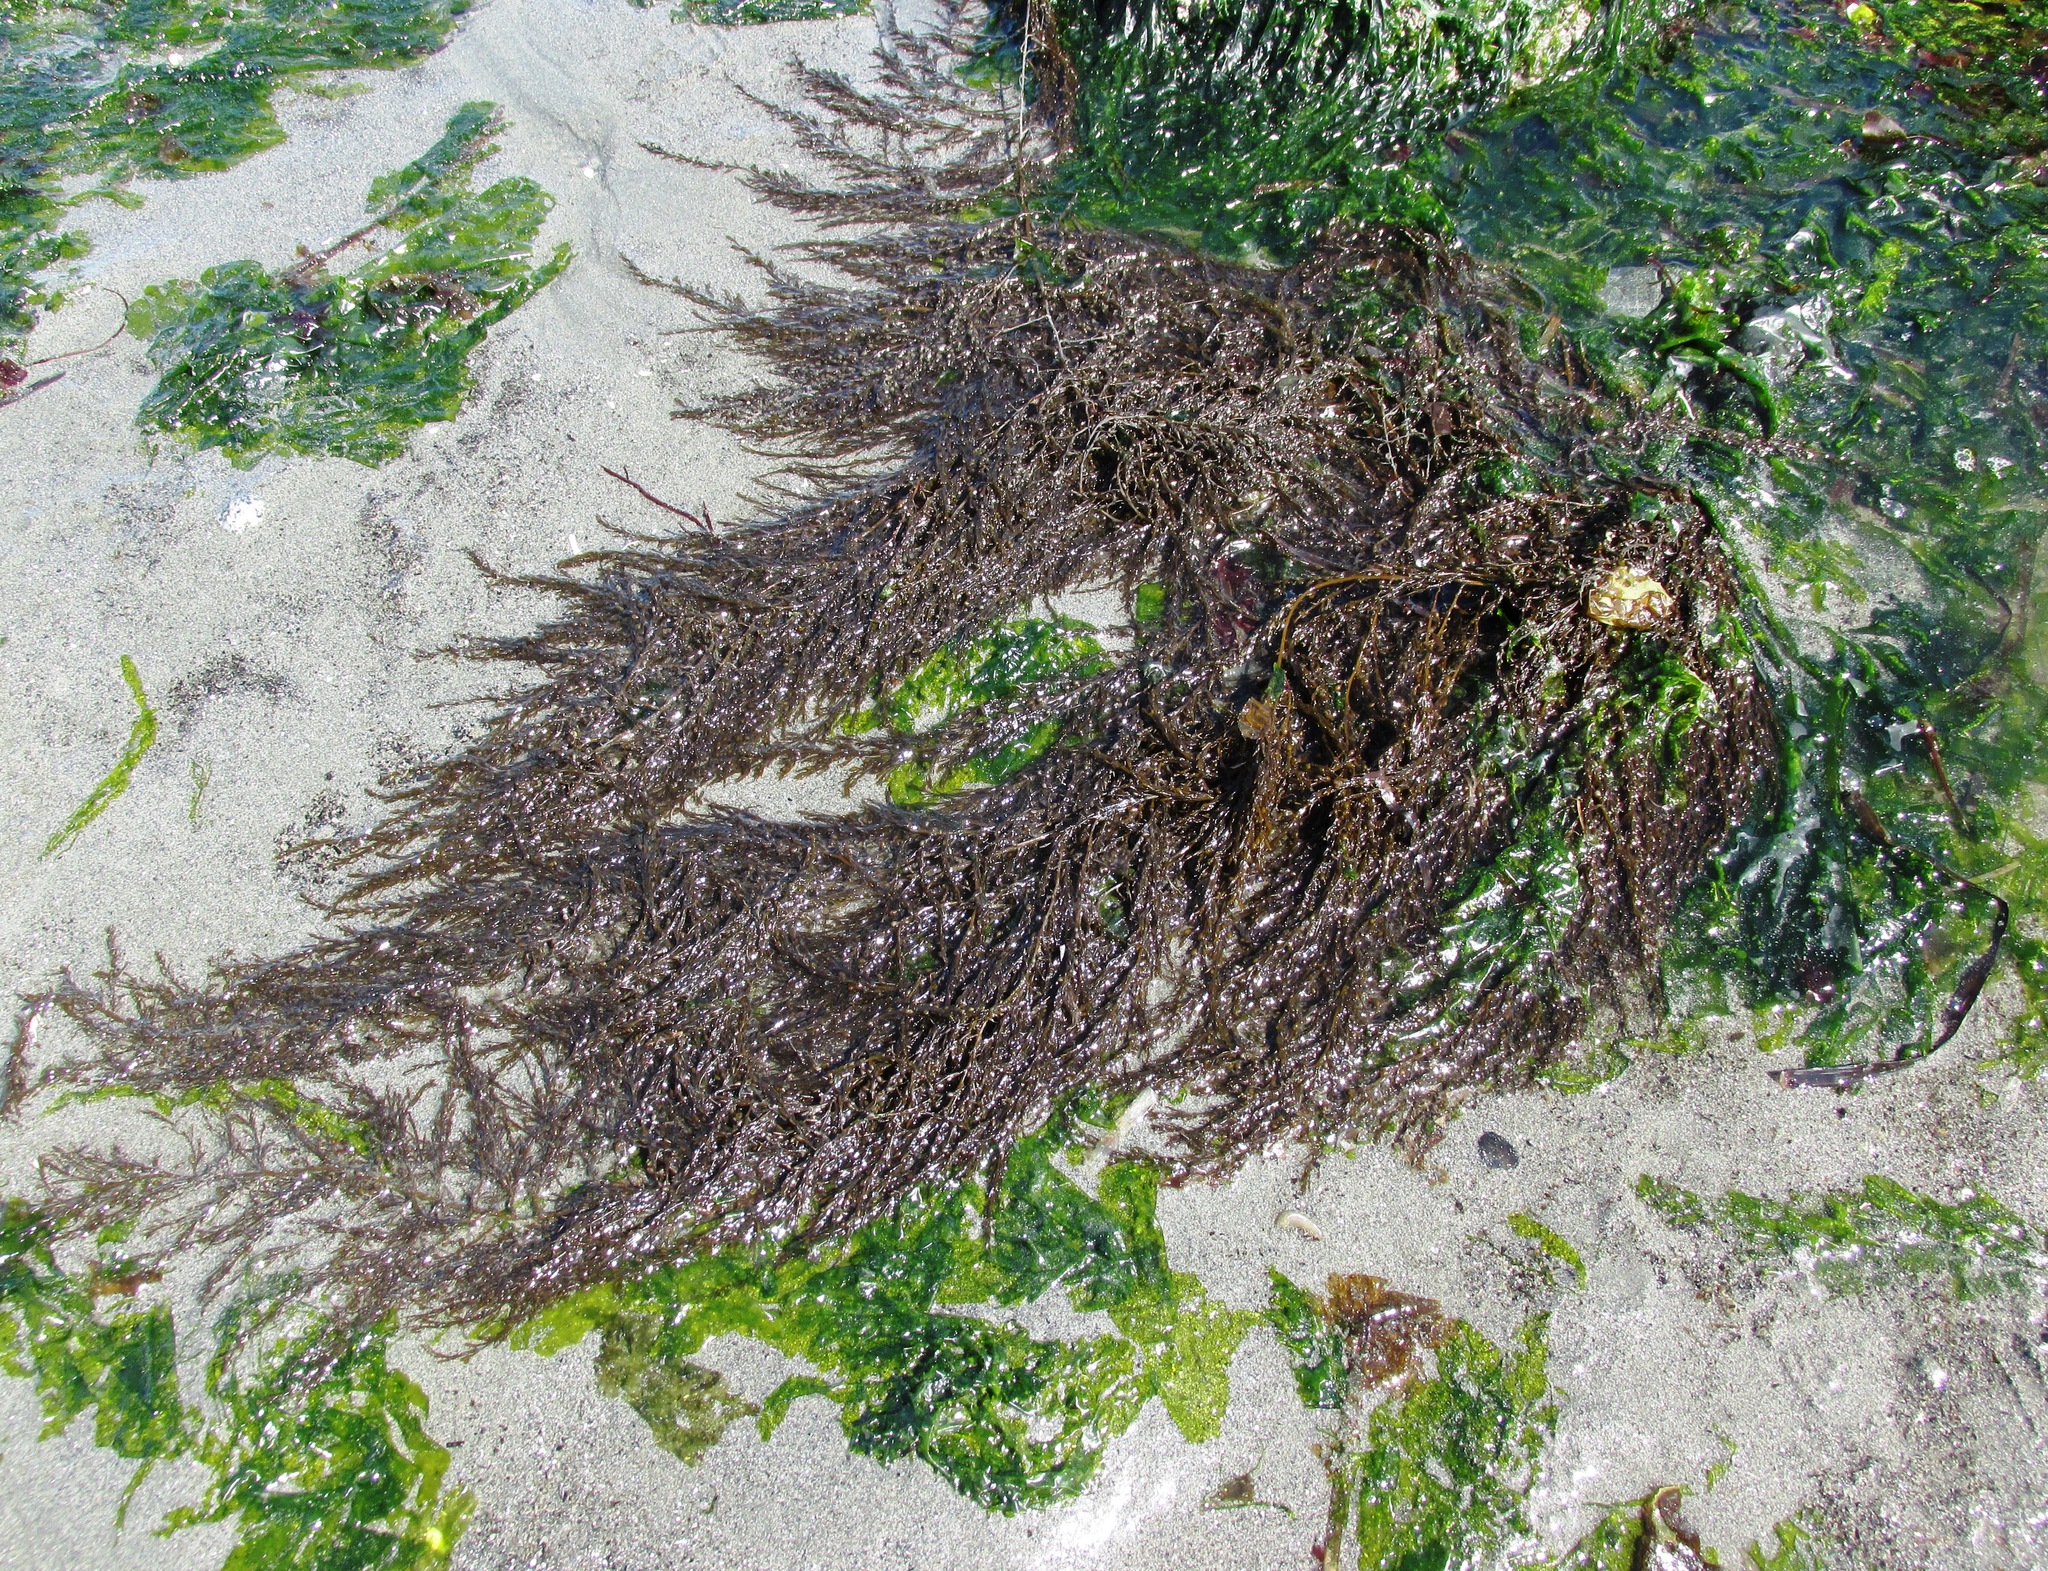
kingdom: Chromista
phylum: Ochrophyta
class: Phaeophyceae
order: Fucales
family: Sargassaceae
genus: Sargassum
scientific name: Sargassum muticum
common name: Japweed
